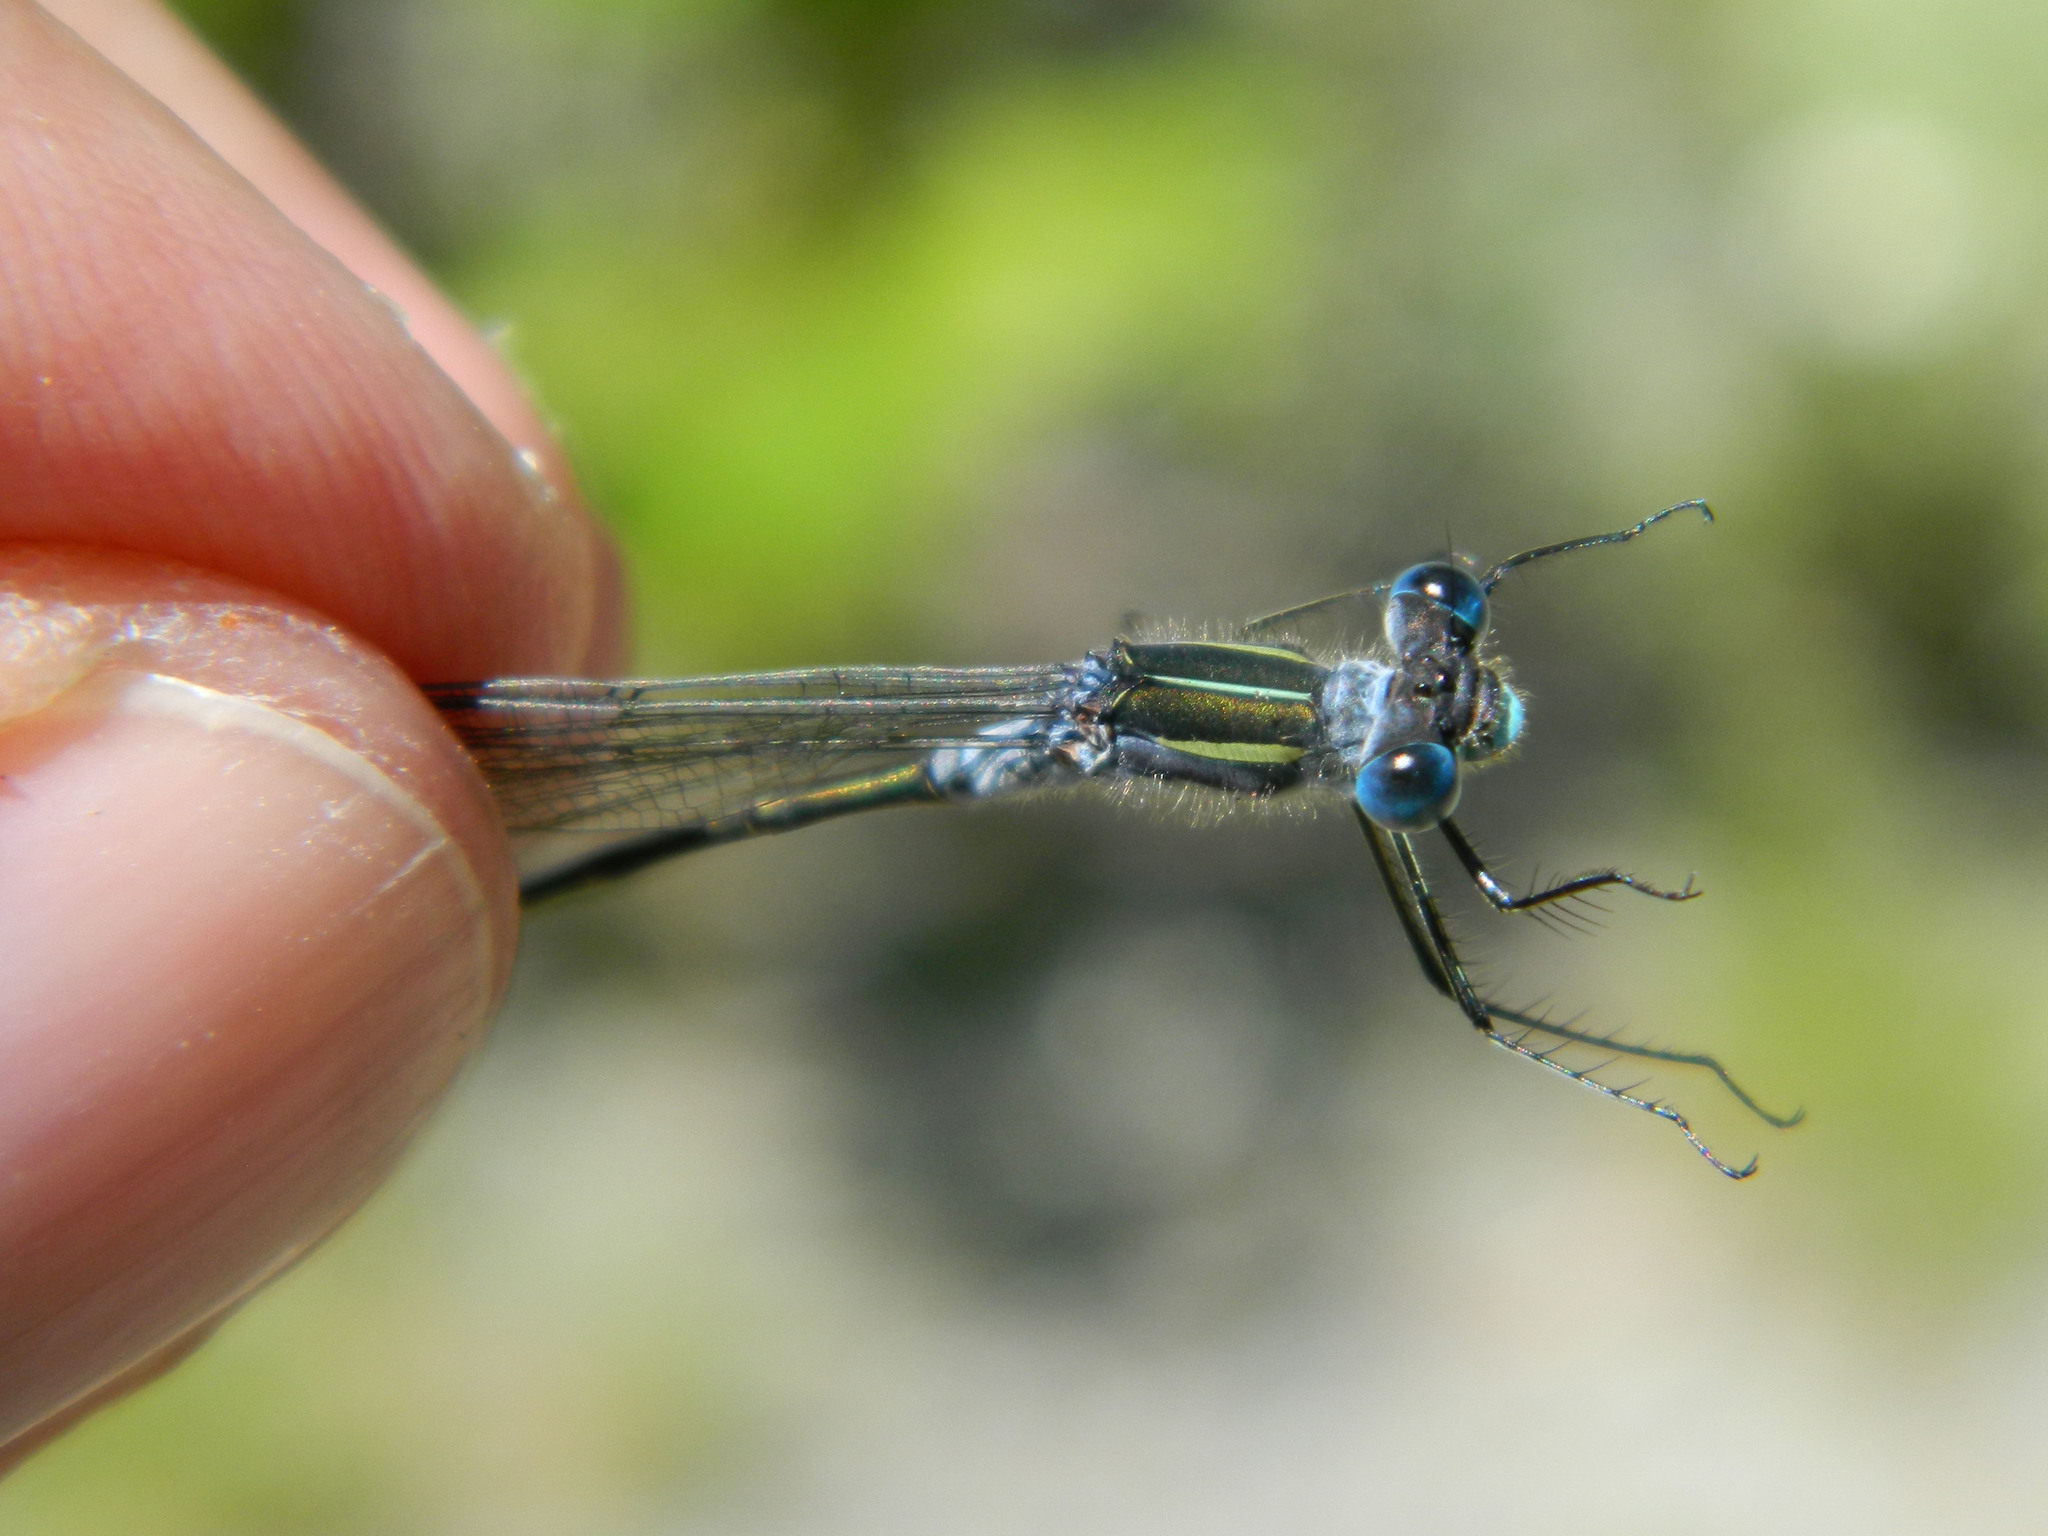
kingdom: Animalia
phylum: Arthropoda
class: Insecta
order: Odonata
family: Lestidae
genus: Lestes
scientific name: Lestes disjunctus
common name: Northern spreadwing
